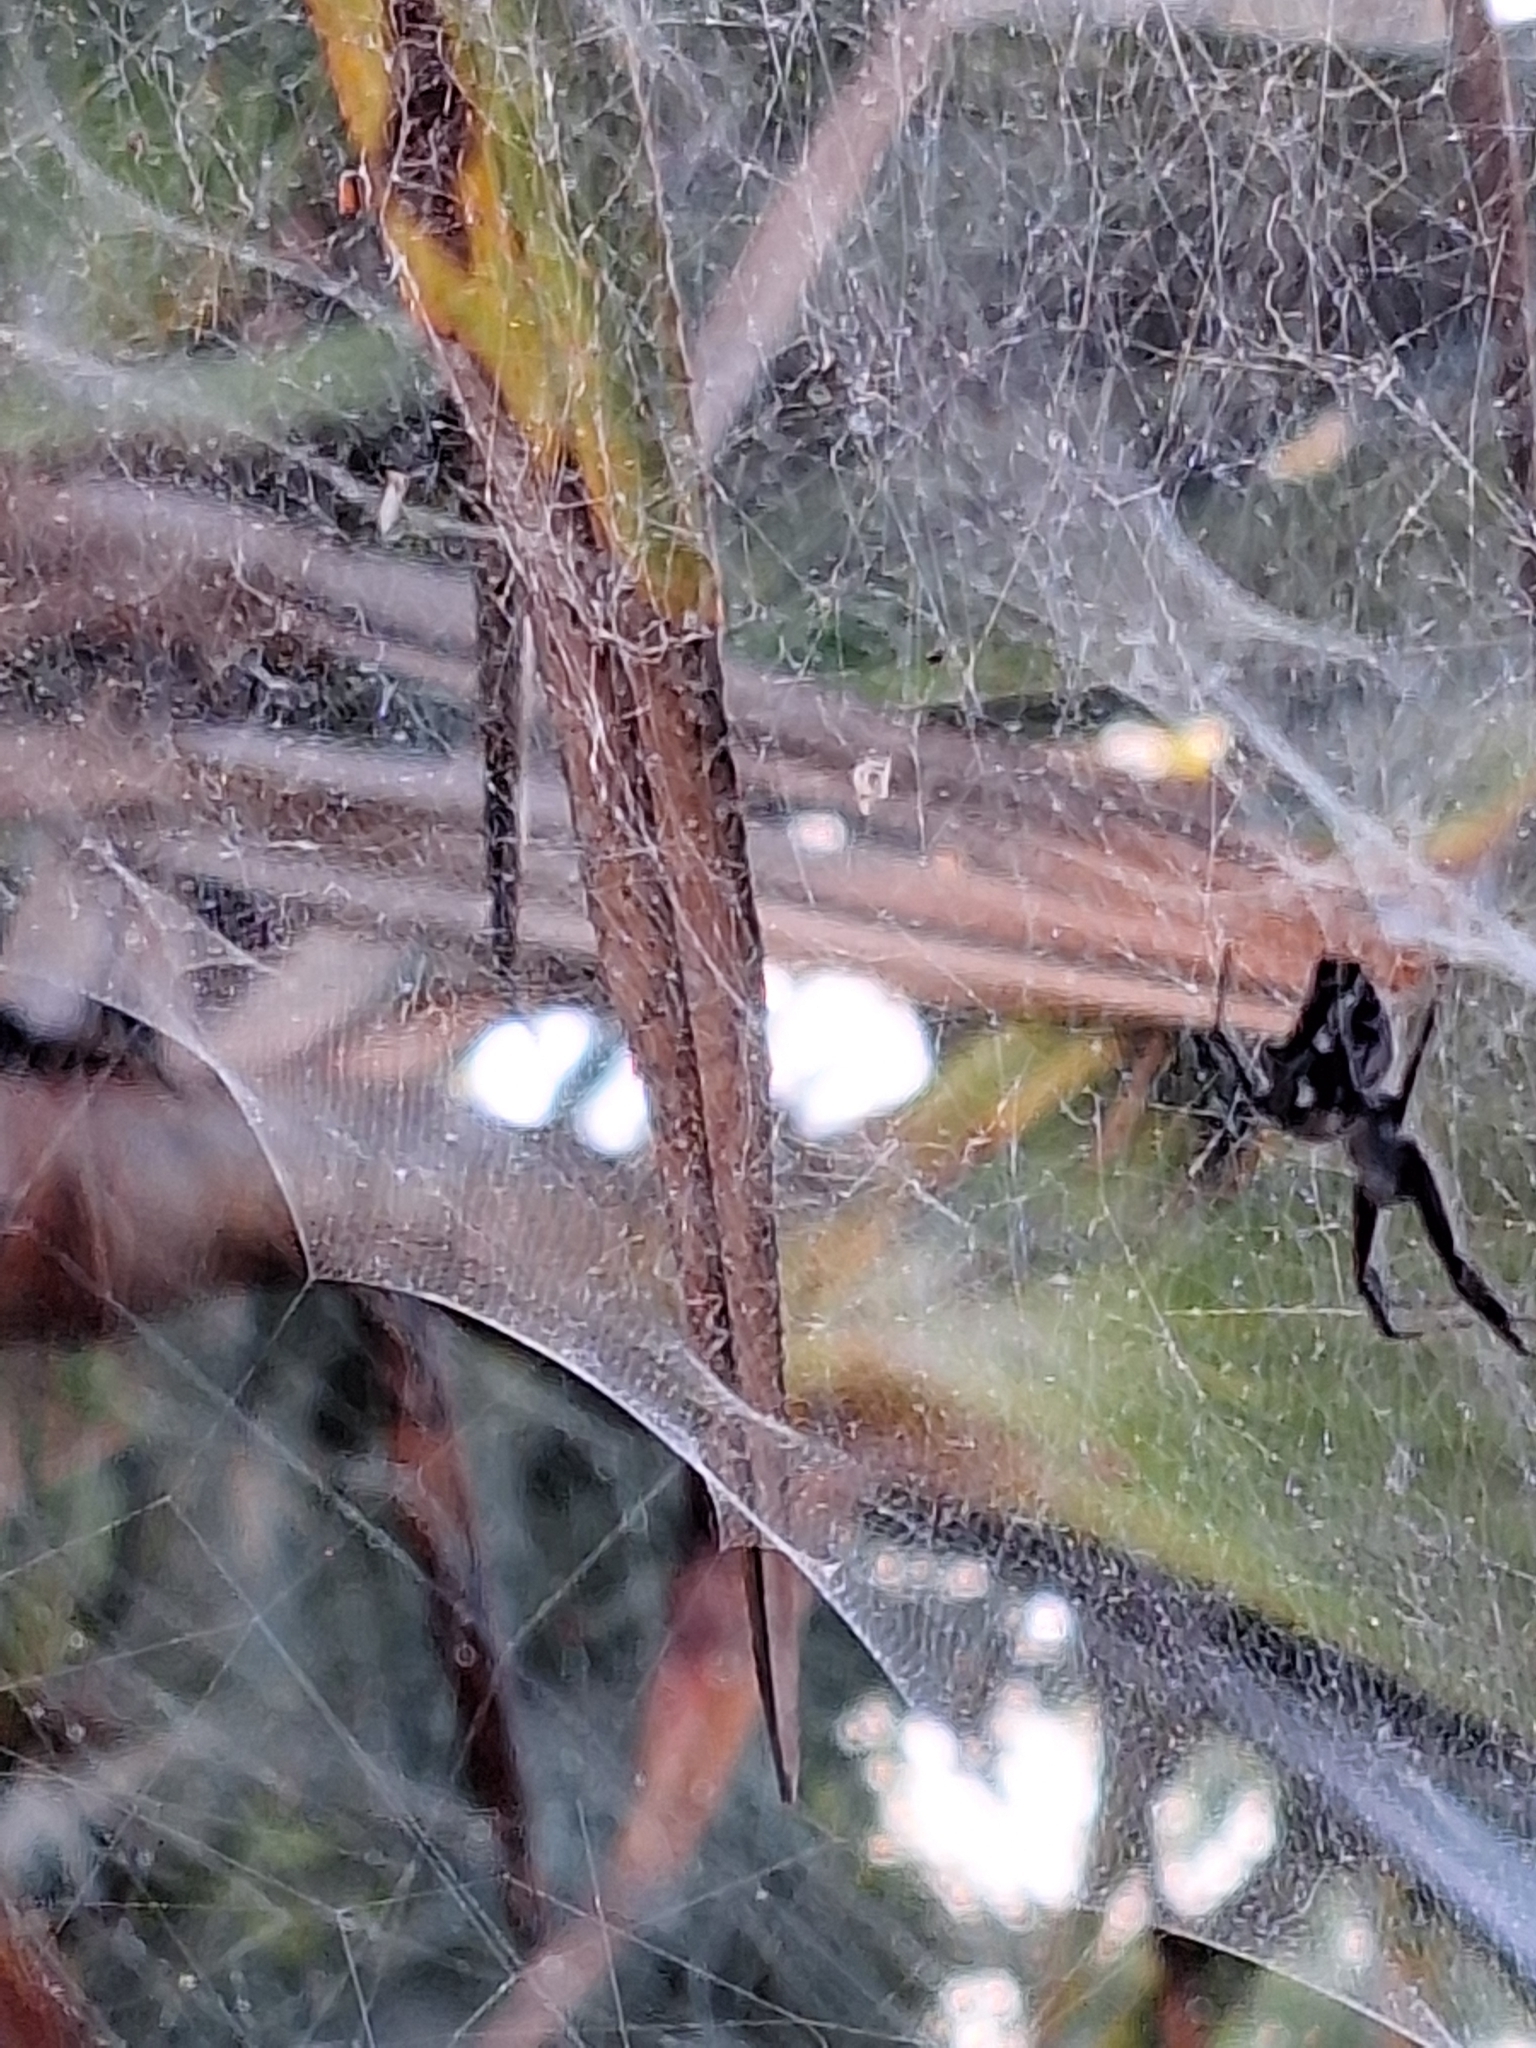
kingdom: Animalia
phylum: Arthropoda
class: Arachnida
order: Araneae
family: Araneidae
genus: Cyrtophora
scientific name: Cyrtophora citricola
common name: Orb weavers
